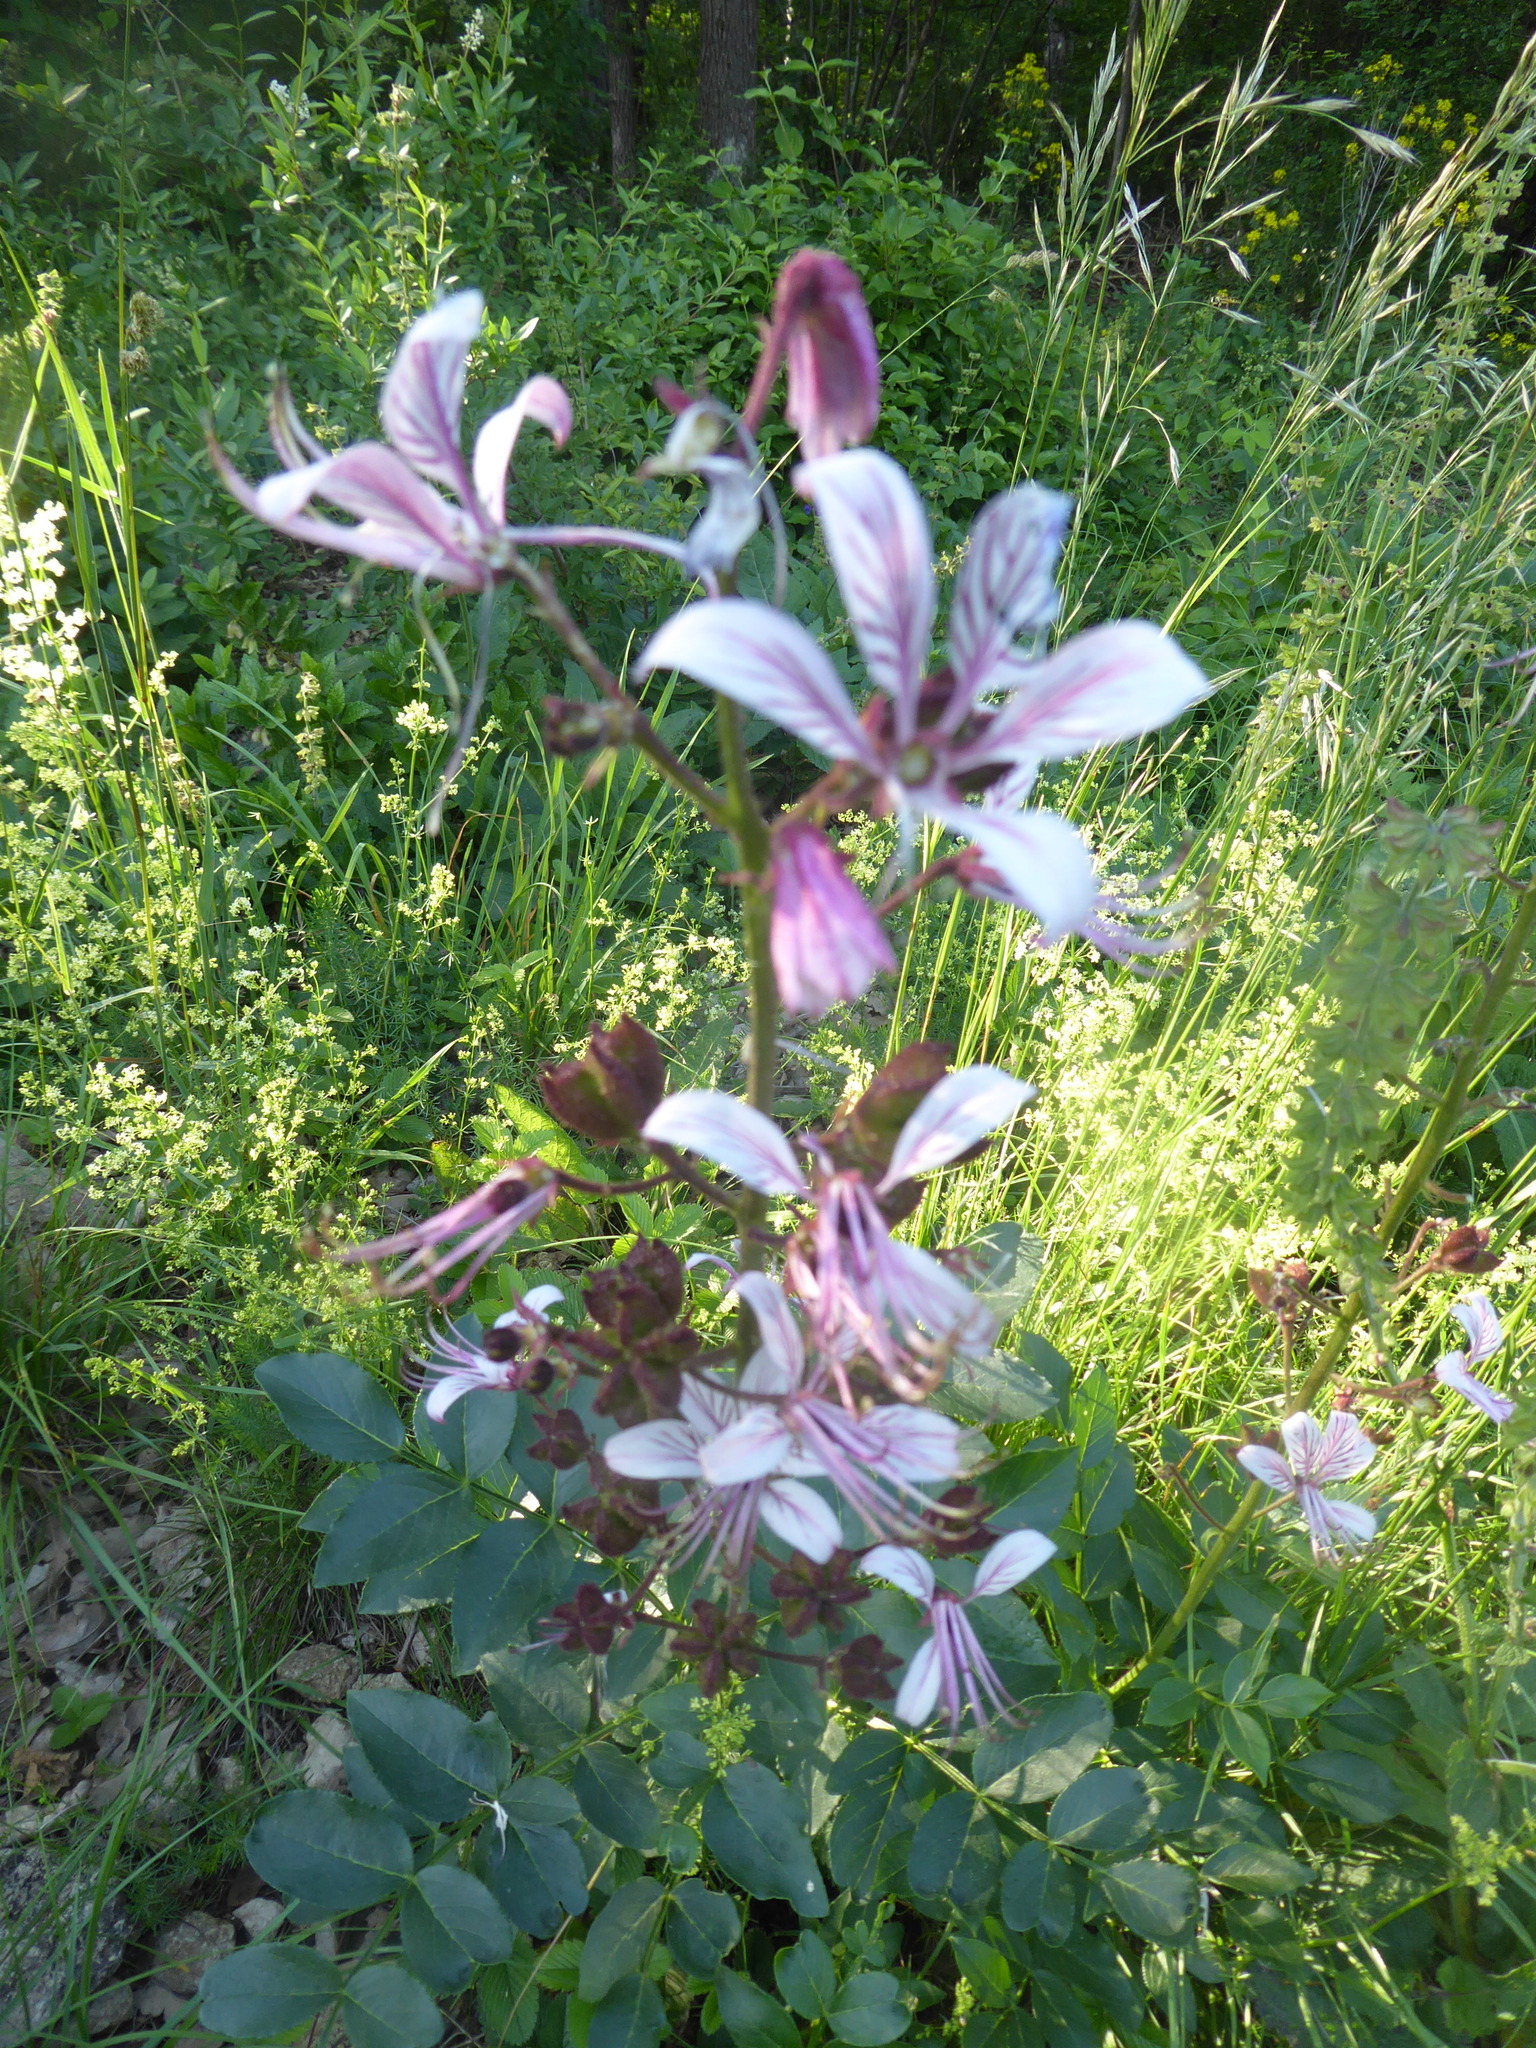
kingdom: Plantae
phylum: Tracheophyta
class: Magnoliopsida
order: Sapindales
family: Rutaceae
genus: Dictamnus
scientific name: Dictamnus albus
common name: Gasplant
